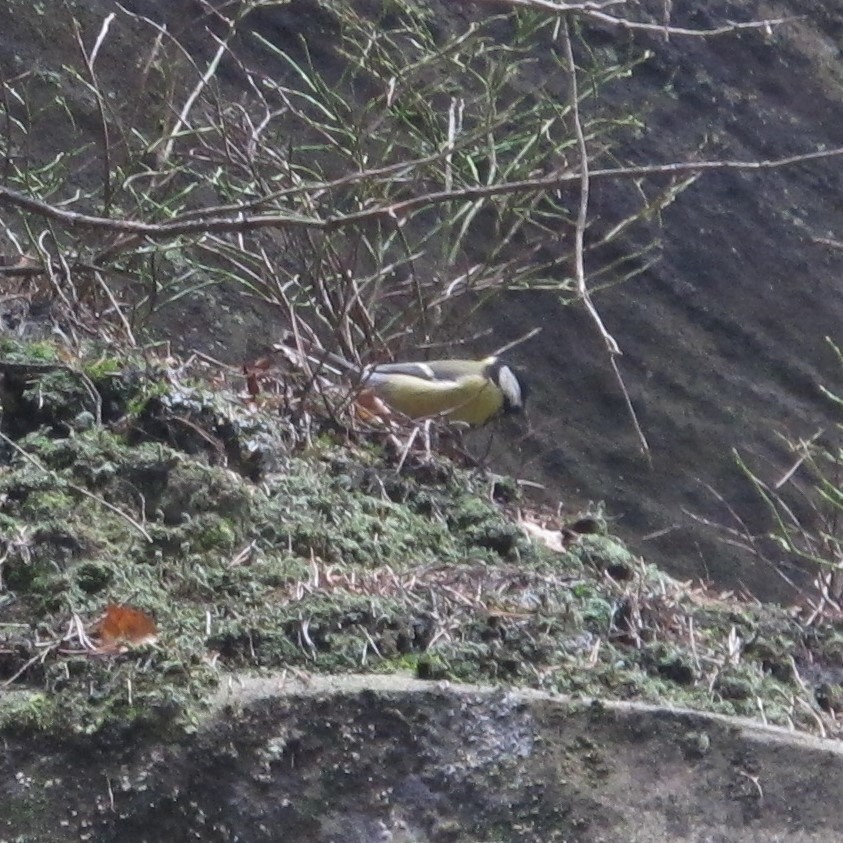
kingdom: Animalia
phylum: Chordata
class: Aves
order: Passeriformes
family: Paridae
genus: Parus
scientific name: Parus major
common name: Great tit
